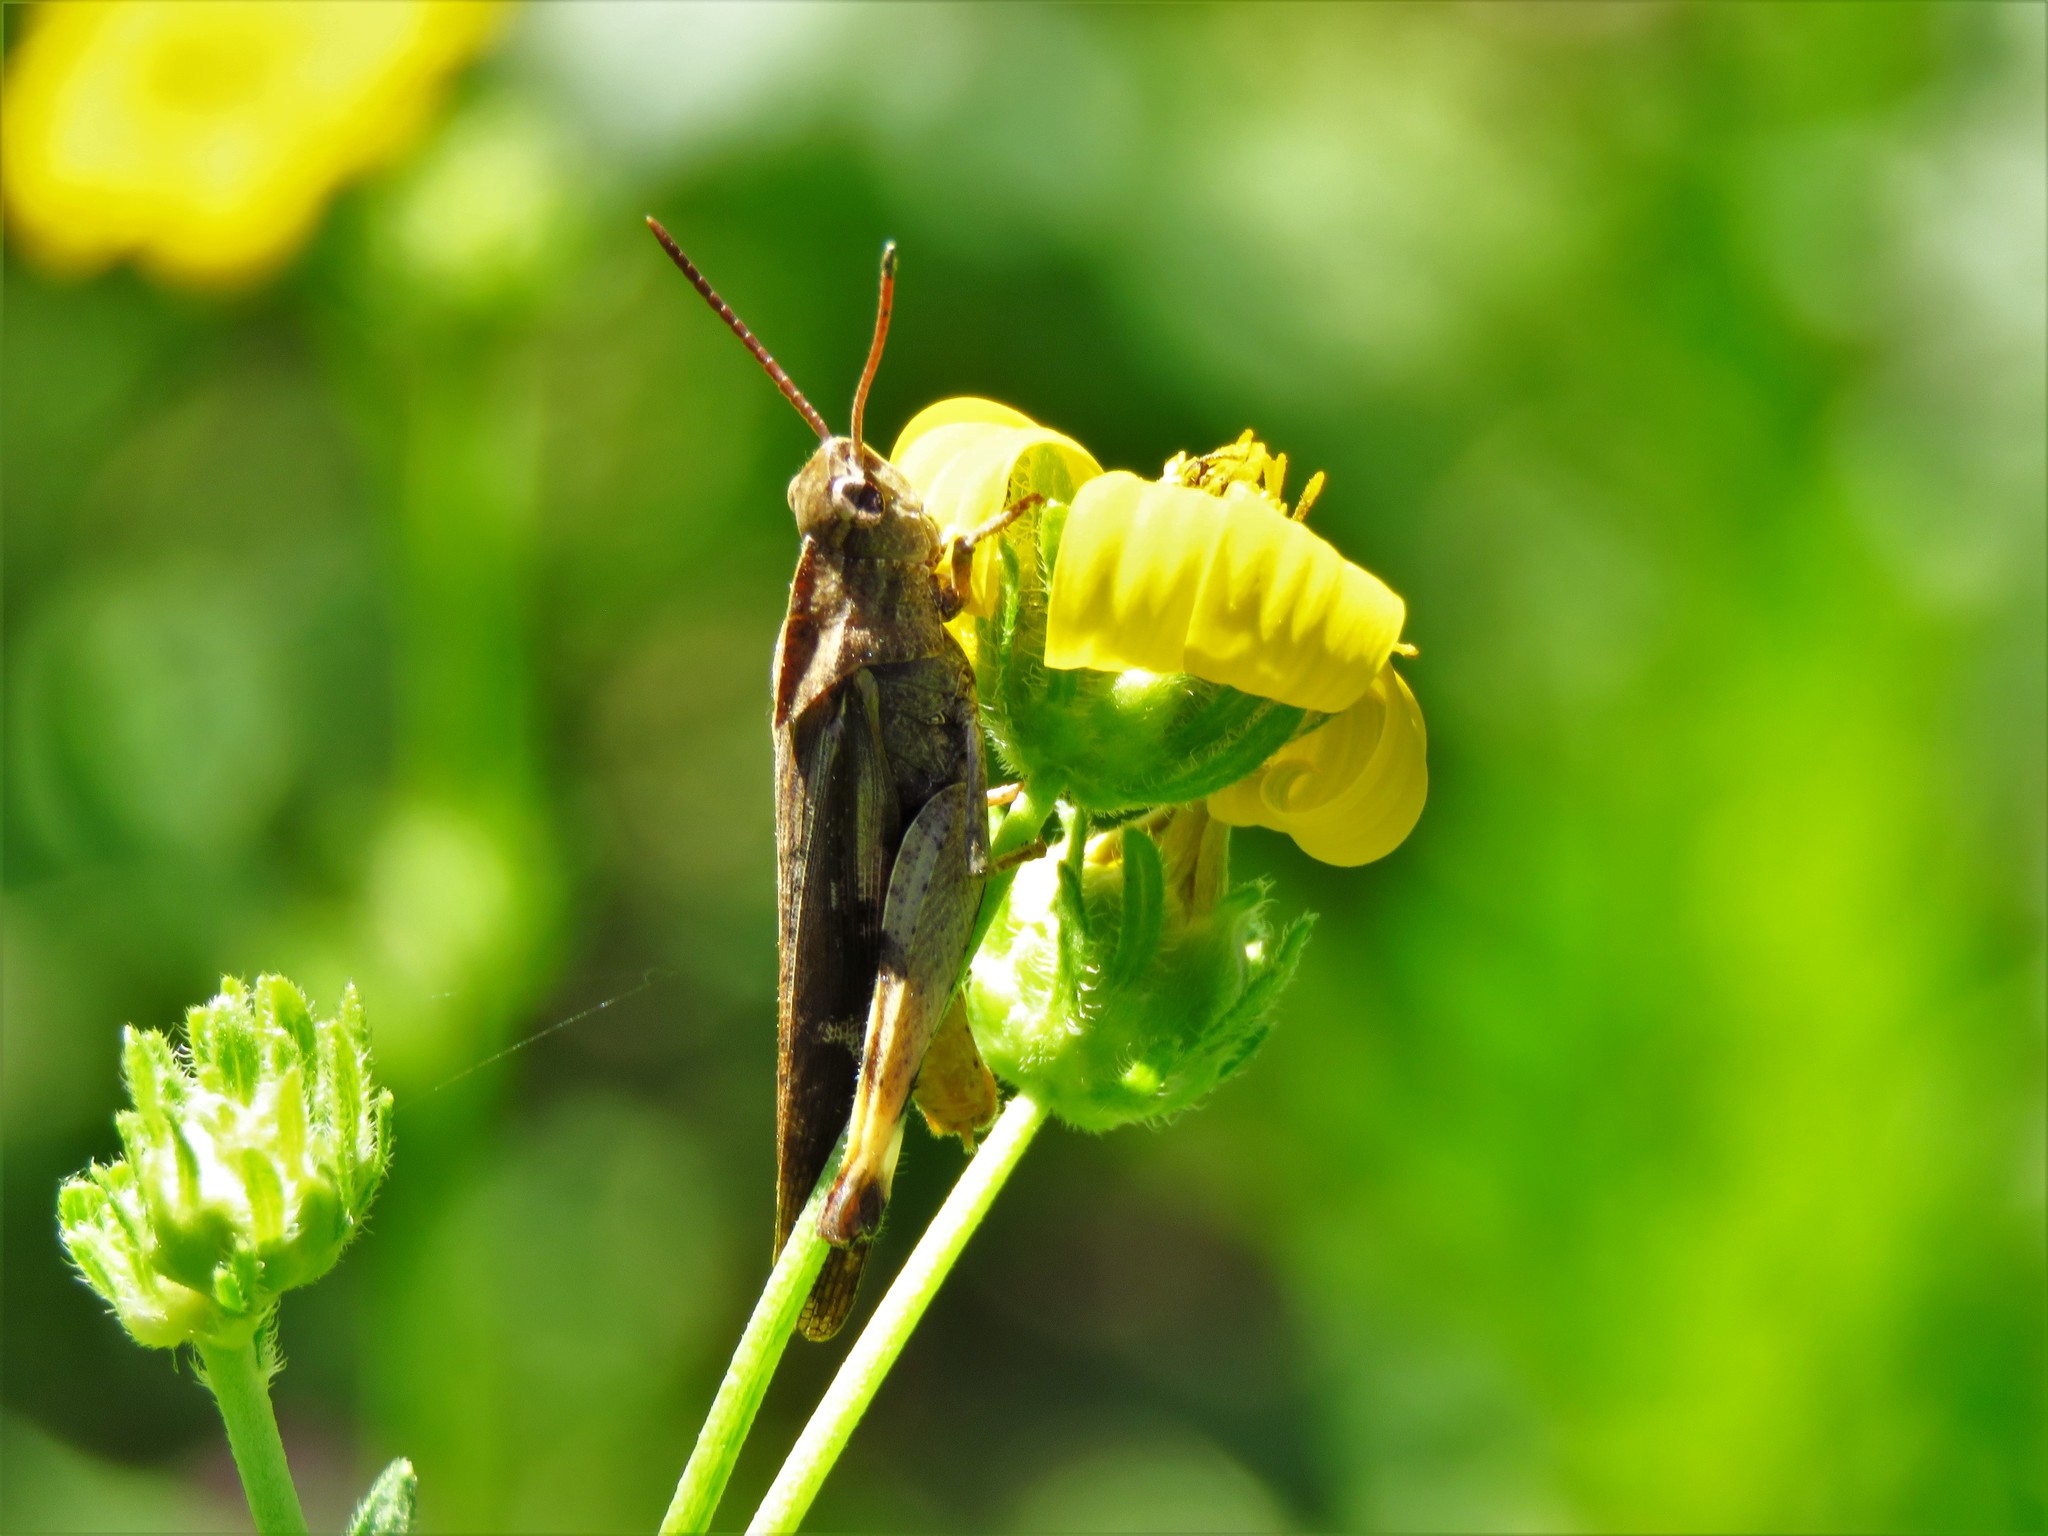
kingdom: Animalia
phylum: Arthropoda
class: Insecta
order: Orthoptera
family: Acrididae
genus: Chortophaga
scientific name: Chortophaga viridifasciata
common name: Green-striped grasshopper
